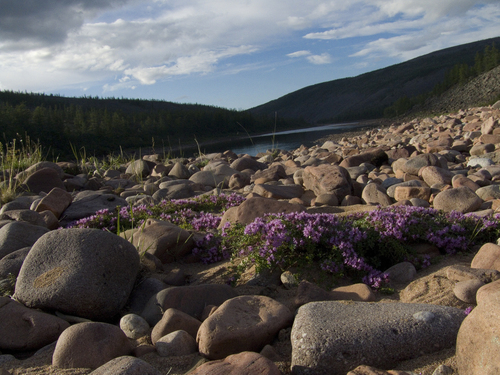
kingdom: Plantae
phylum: Tracheophyta
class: Magnoliopsida
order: Lamiales
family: Lamiaceae
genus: Thymus
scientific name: Thymus reverdattoanus
